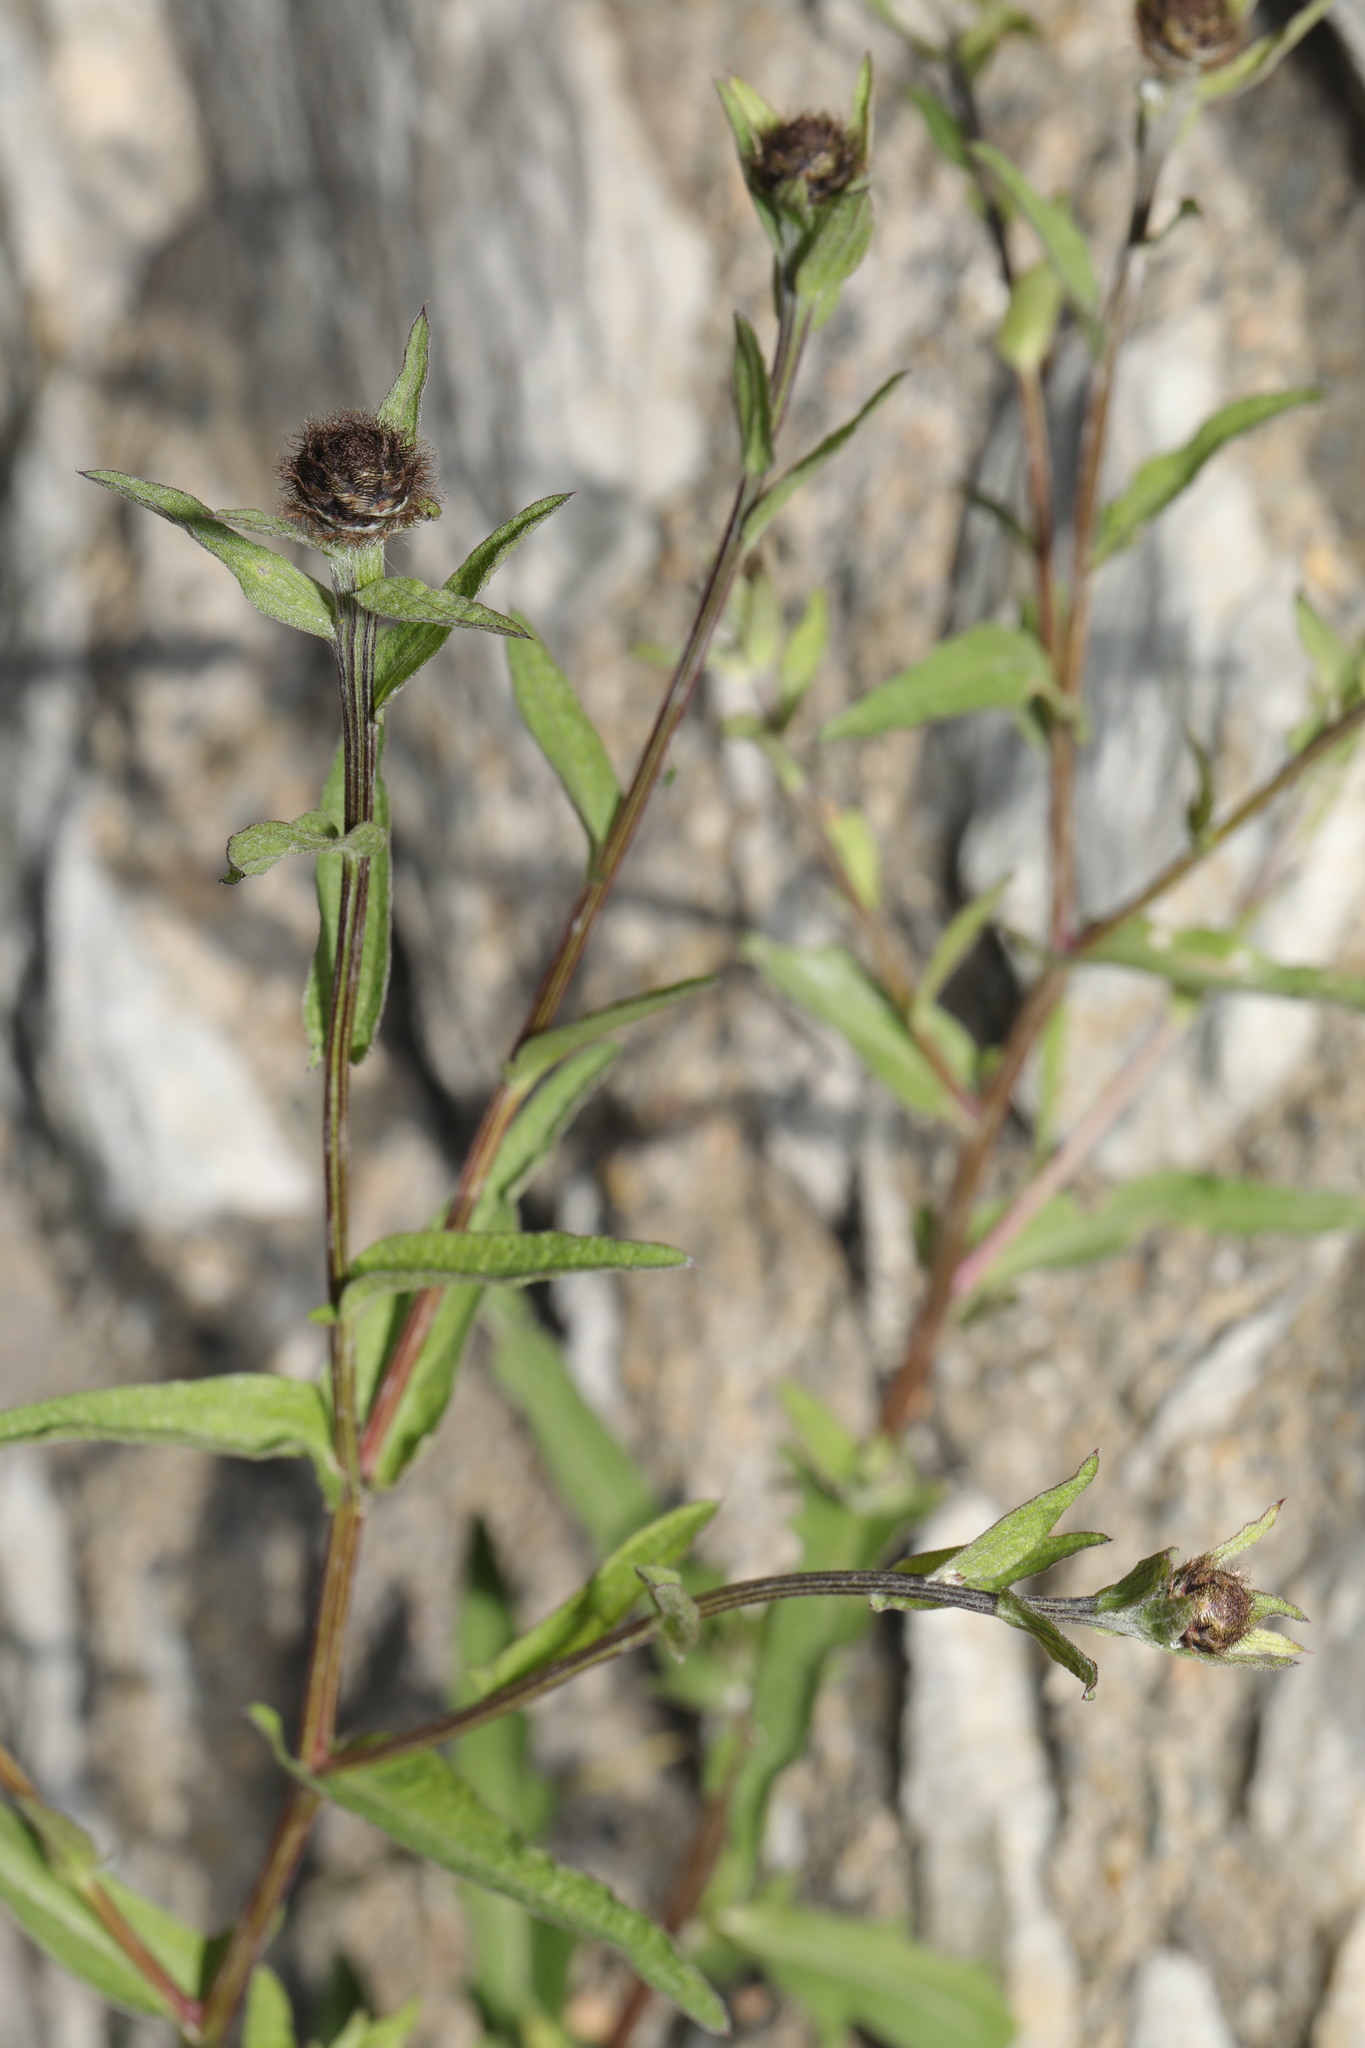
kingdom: Plantae
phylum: Tracheophyta
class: Magnoliopsida
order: Asterales
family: Asteraceae
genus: Centaurea
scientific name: Centaurea nigra
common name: Lesser knapweed
